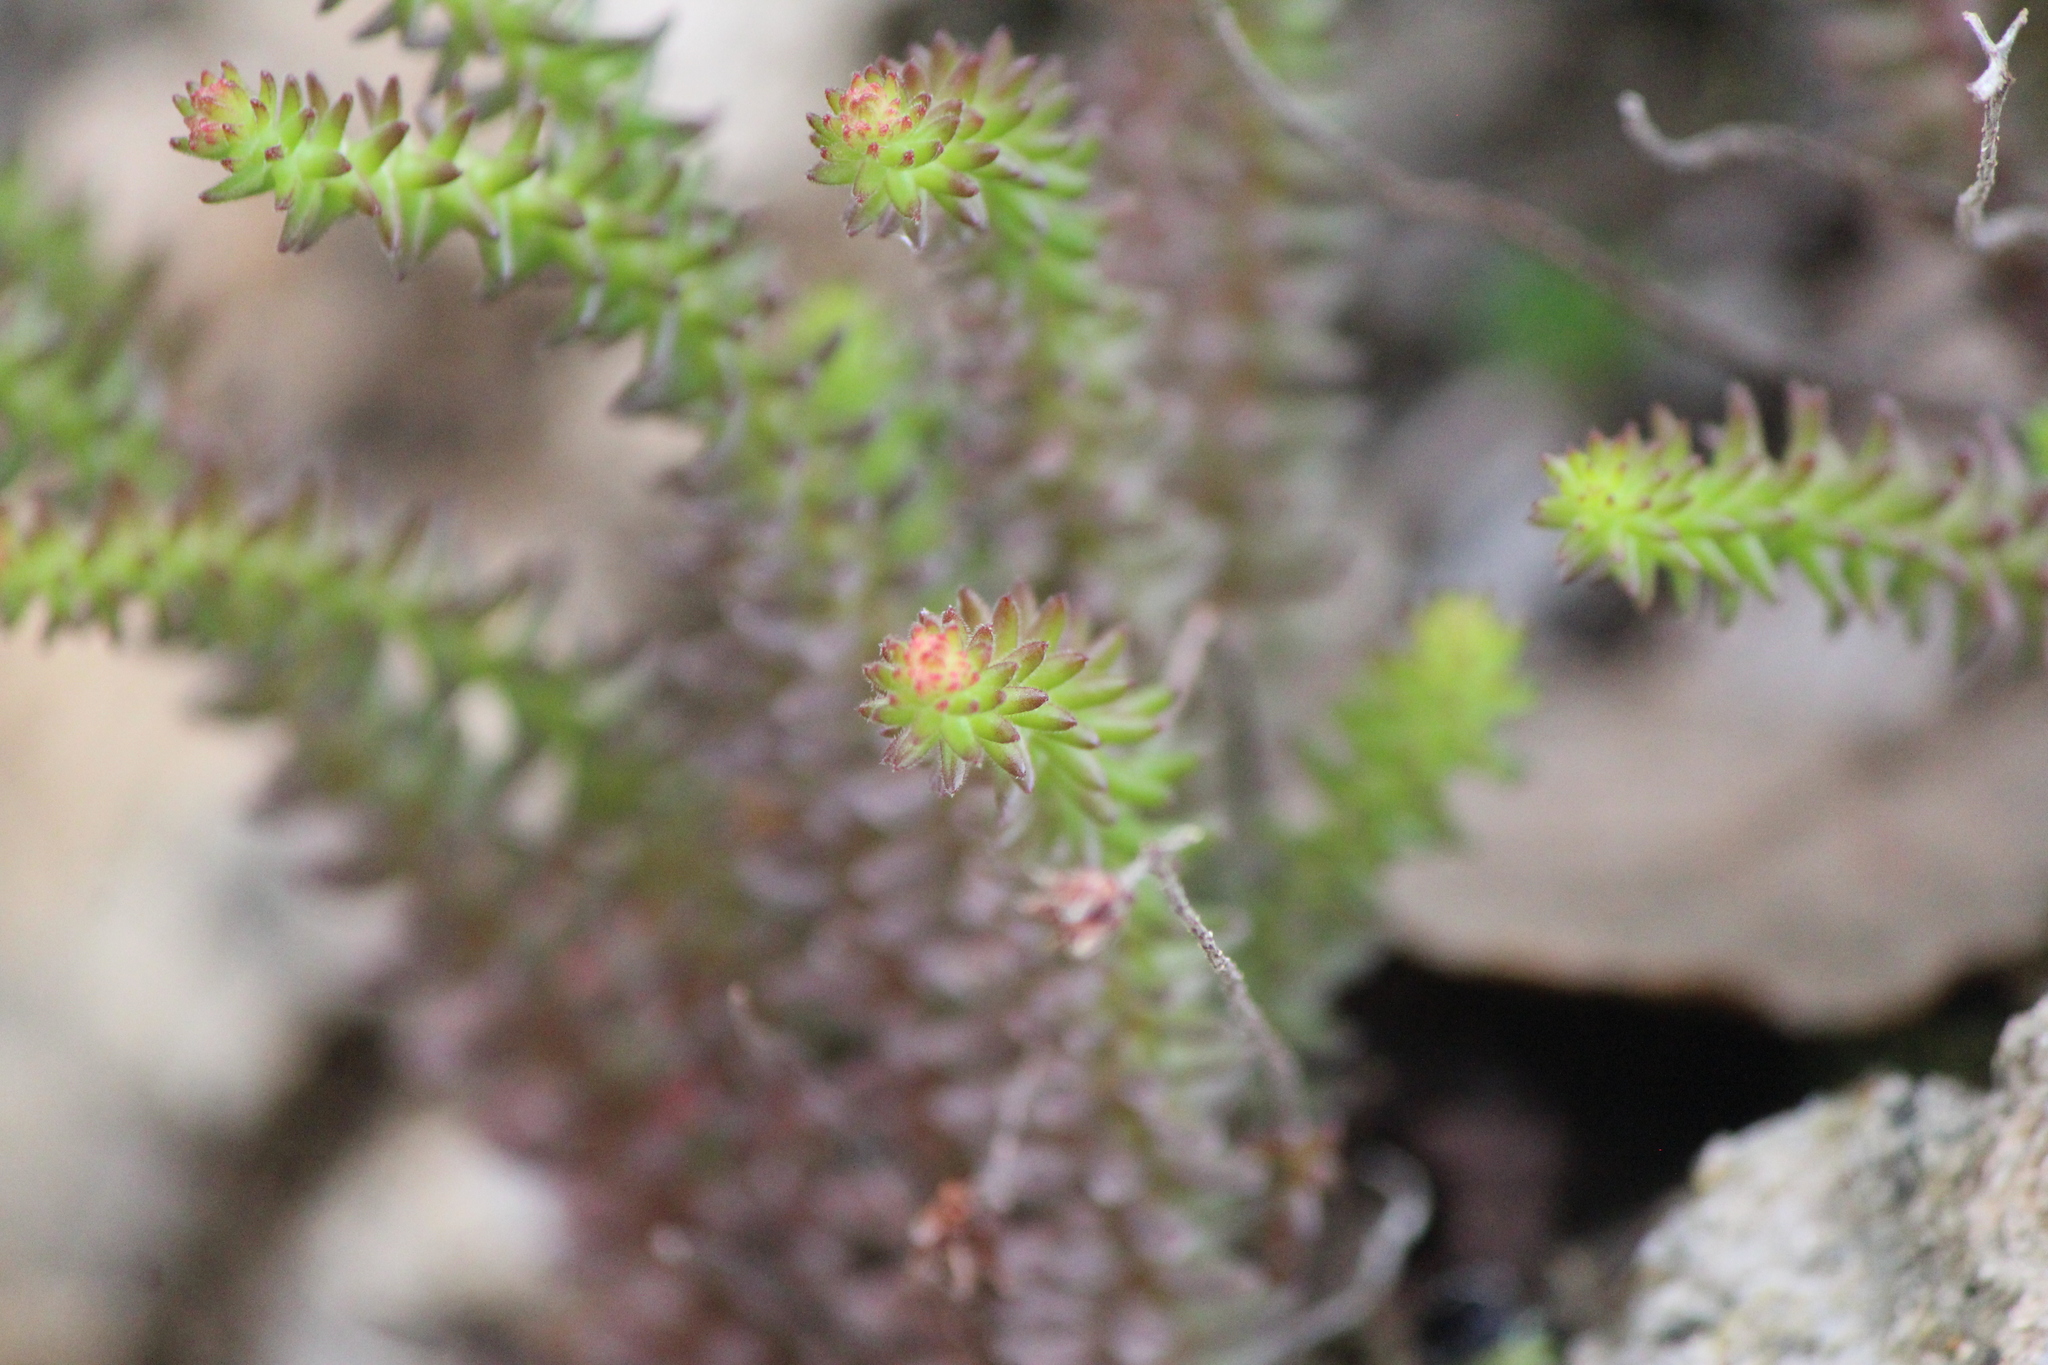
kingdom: Plantae
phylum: Tracheophyta
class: Magnoliopsida
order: Saxifragales
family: Crassulaceae
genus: Sedum
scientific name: Sedum jurgensenii
